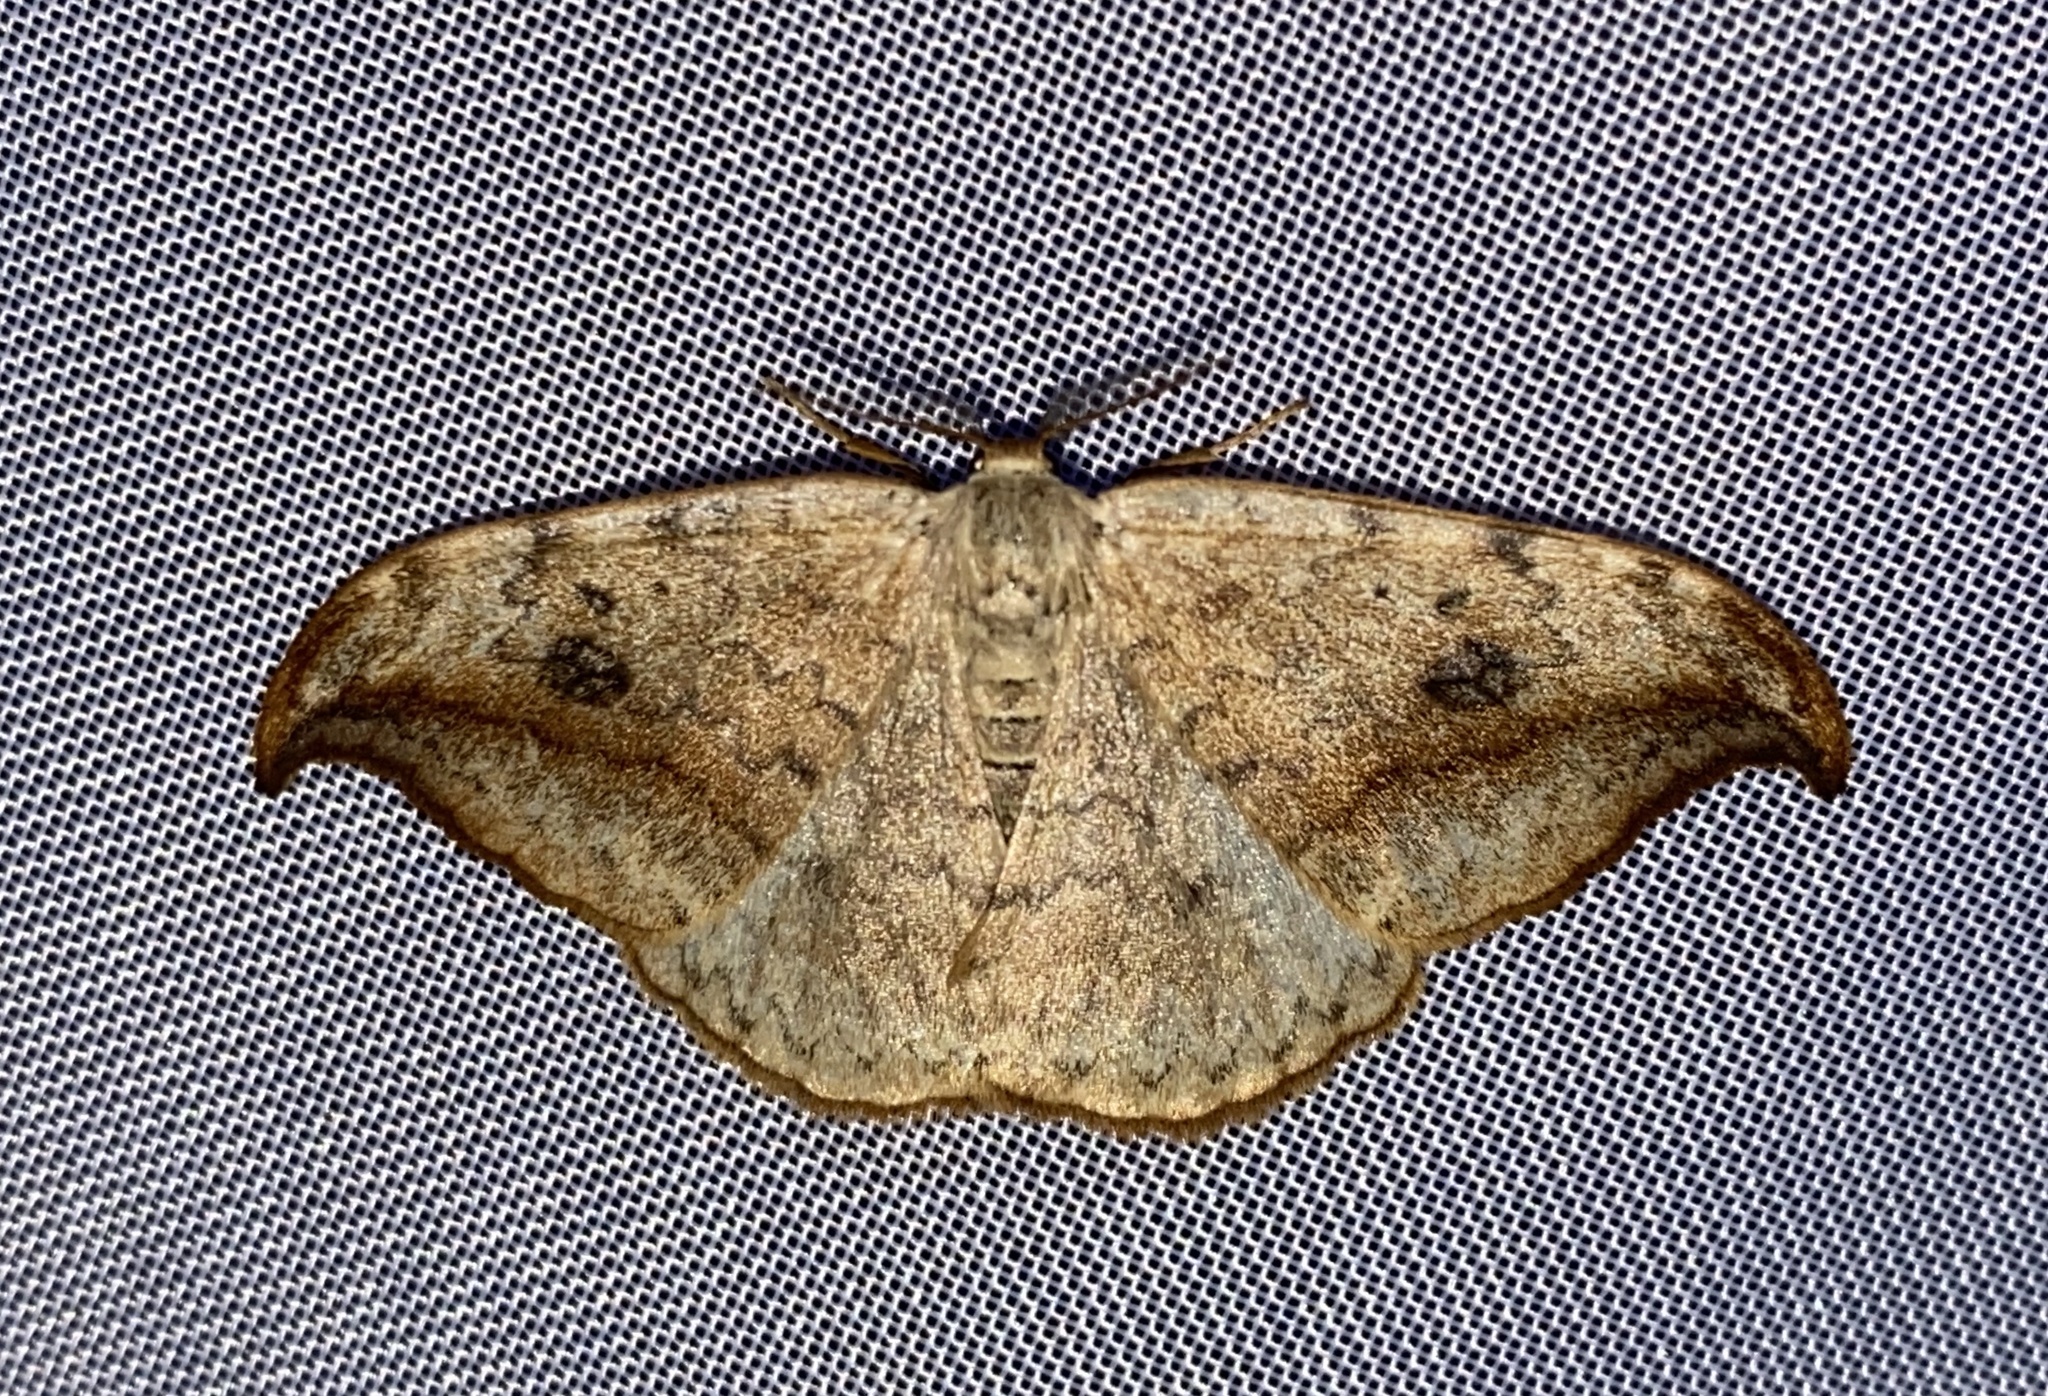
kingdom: Animalia
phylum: Arthropoda
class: Insecta
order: Lepidoptera
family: Drepanidae
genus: Drepana
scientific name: Drepana falcataria
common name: Pebble hook-tip
